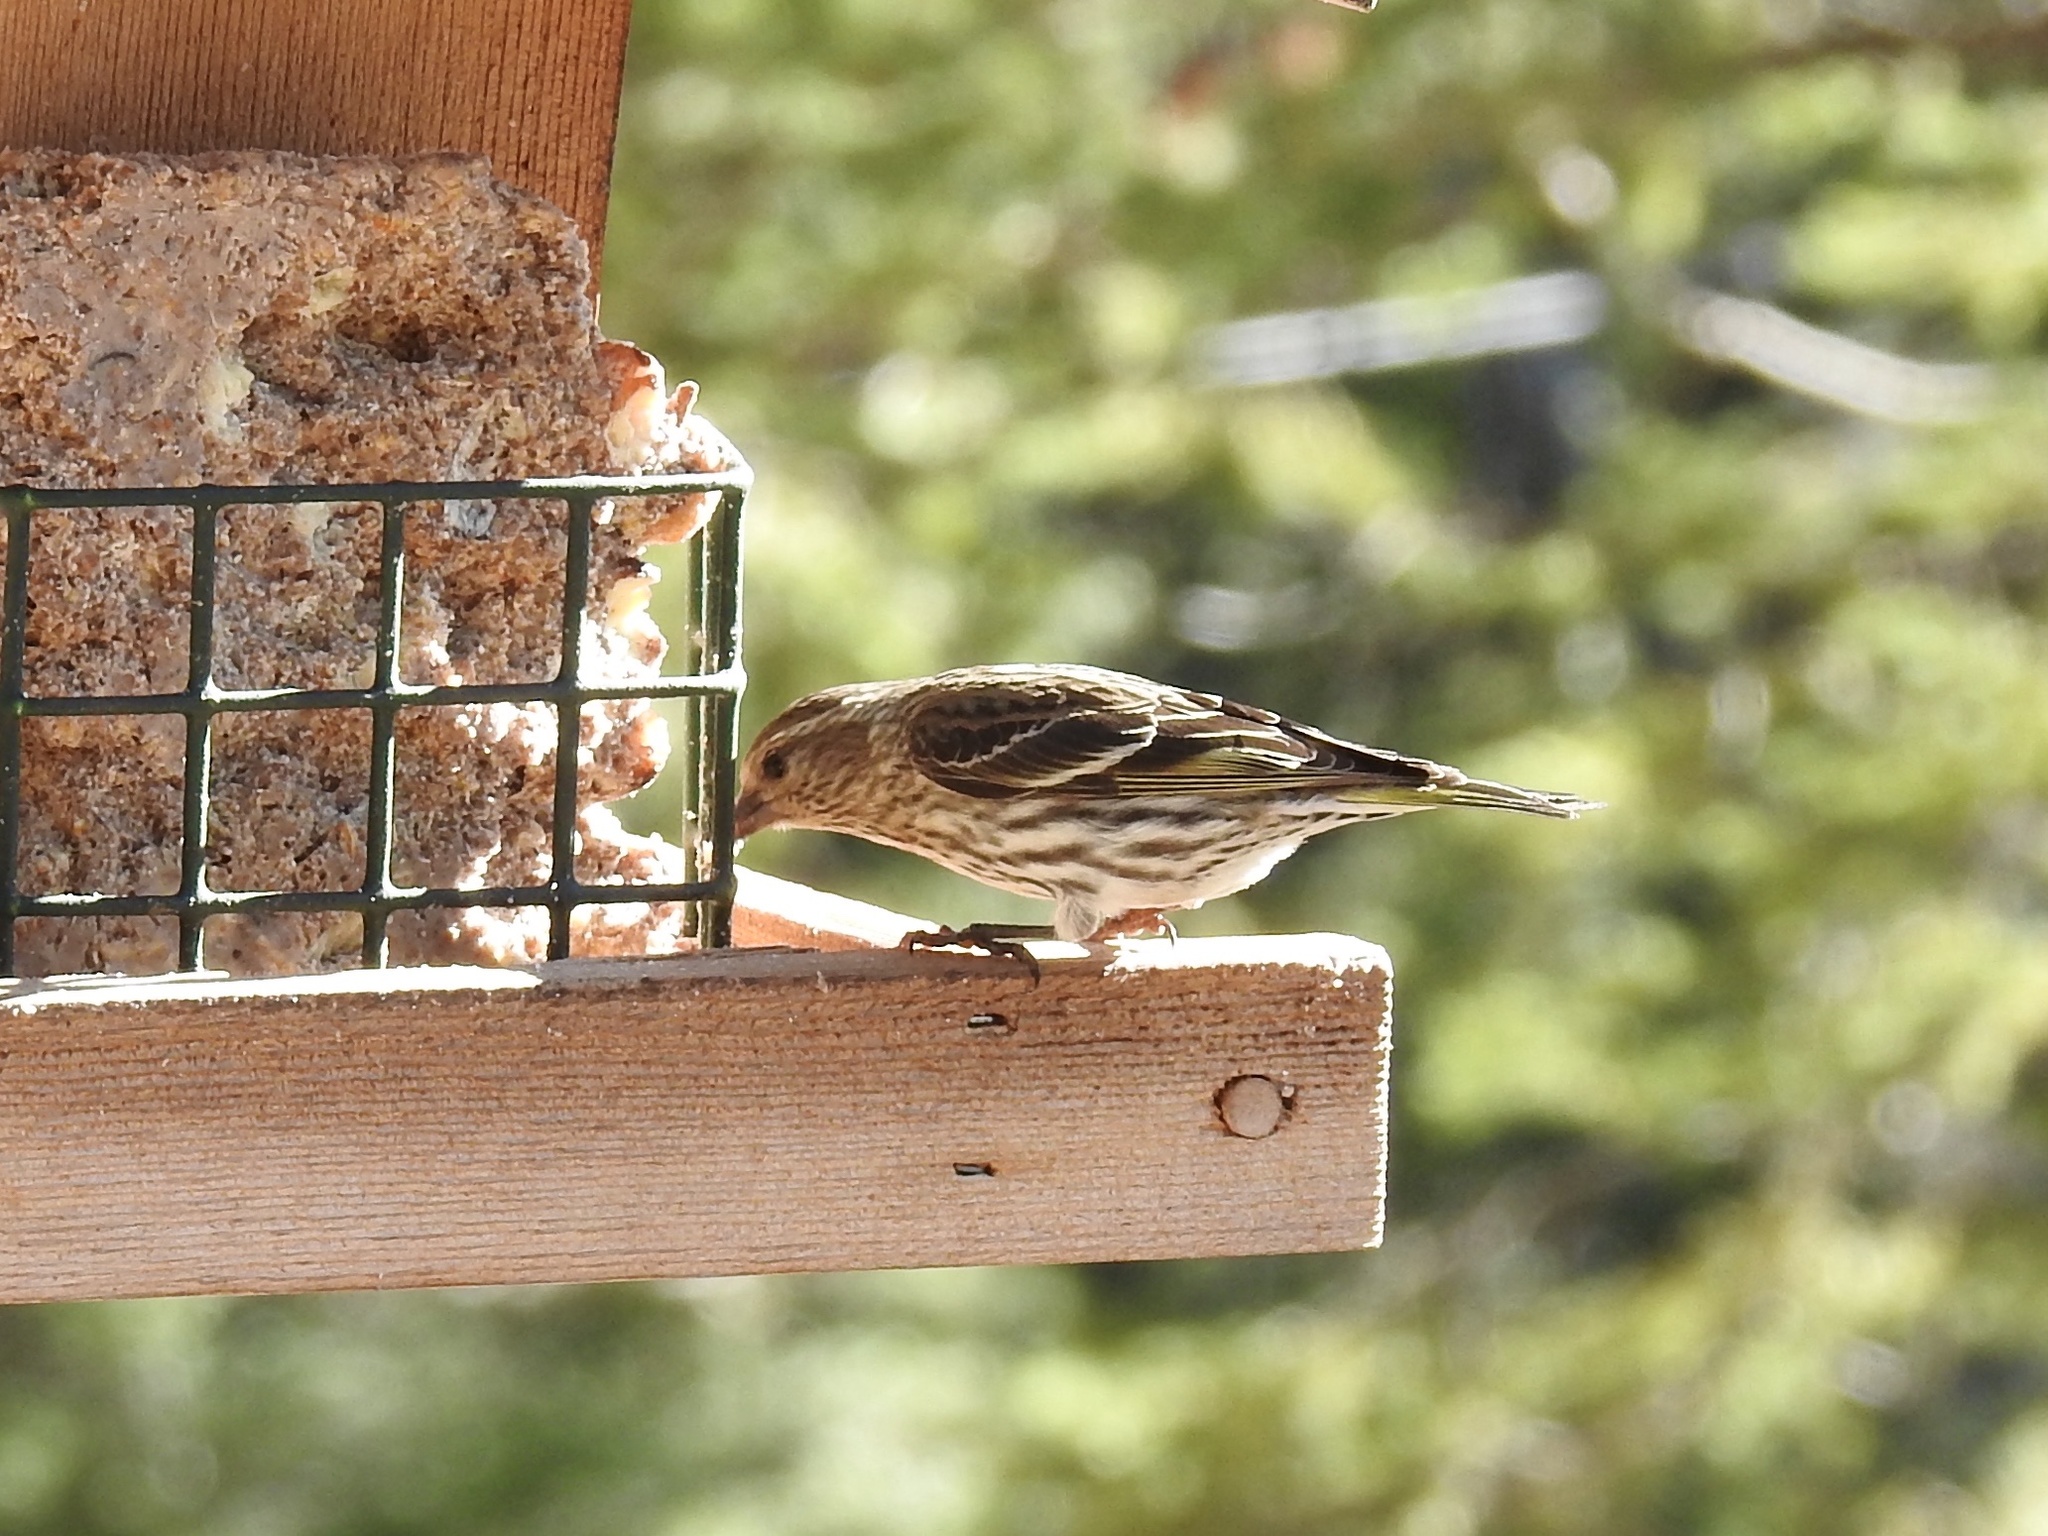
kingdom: Animalia
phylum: Chordata
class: Aves
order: Passeriformes
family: Fringillidae
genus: Spinus
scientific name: Spinus pinus
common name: Pine siskin
